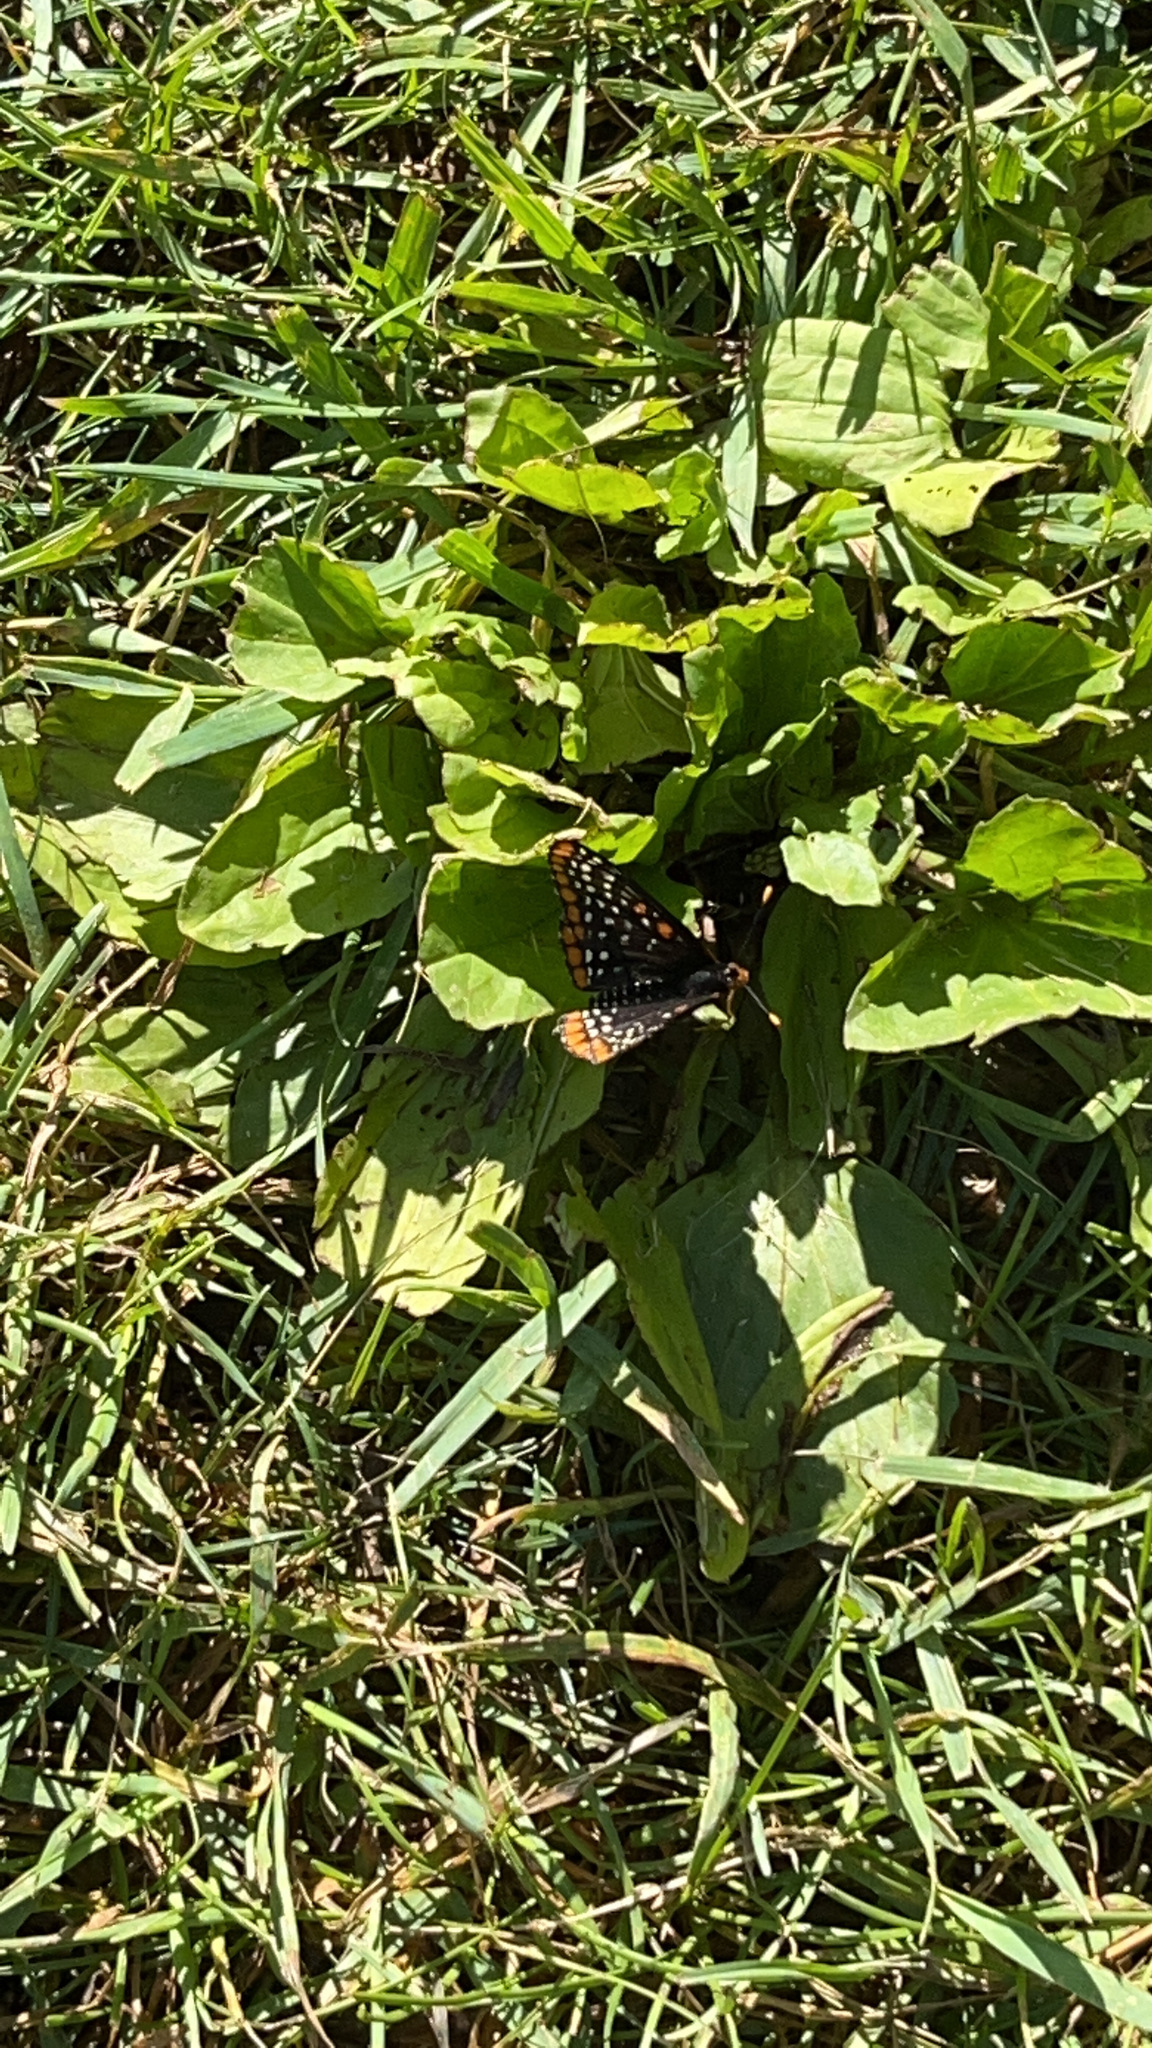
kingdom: Animalia
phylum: Arthropoda
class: Insecta
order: Lepidoptera
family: Nymphalidae
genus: Euphydryas
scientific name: Euphydryas phaeton
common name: Baltimore checkerspot
